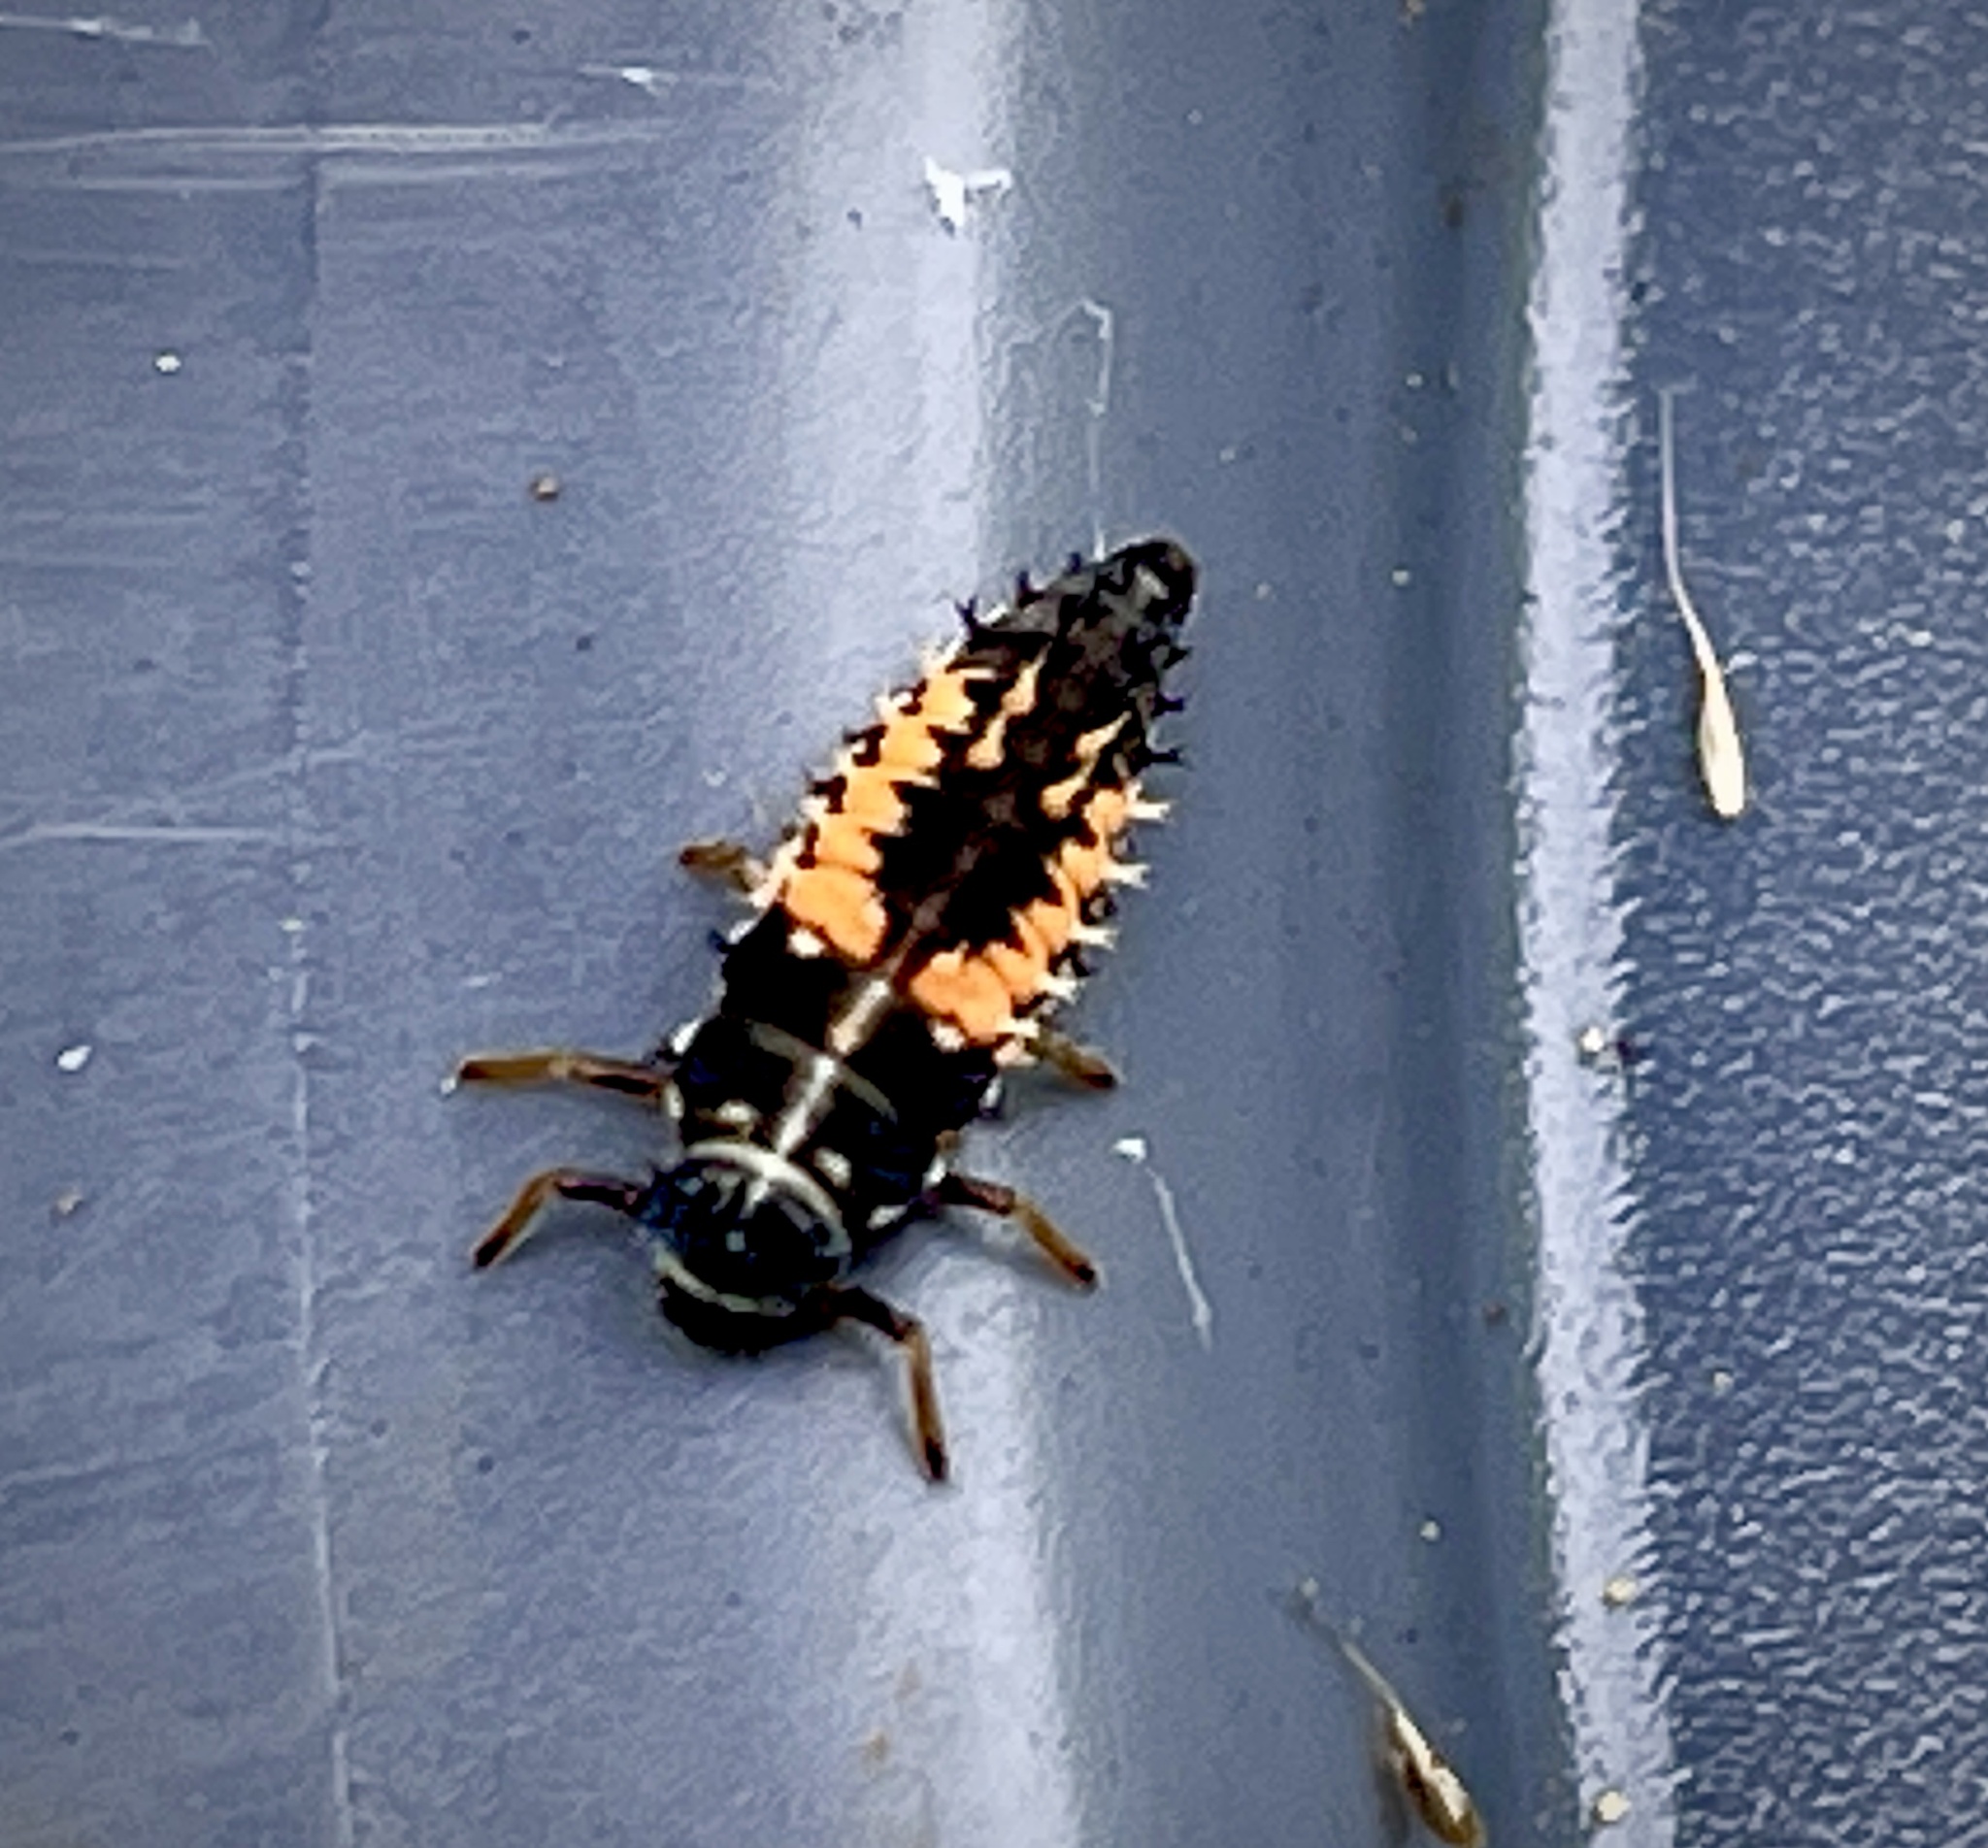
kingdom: Animalia
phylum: Arthropoda
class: Insecta
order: Coleoptera
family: Coccinellidae
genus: Harmonia
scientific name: Harmonia axyridis
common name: Harlequin ladybird
